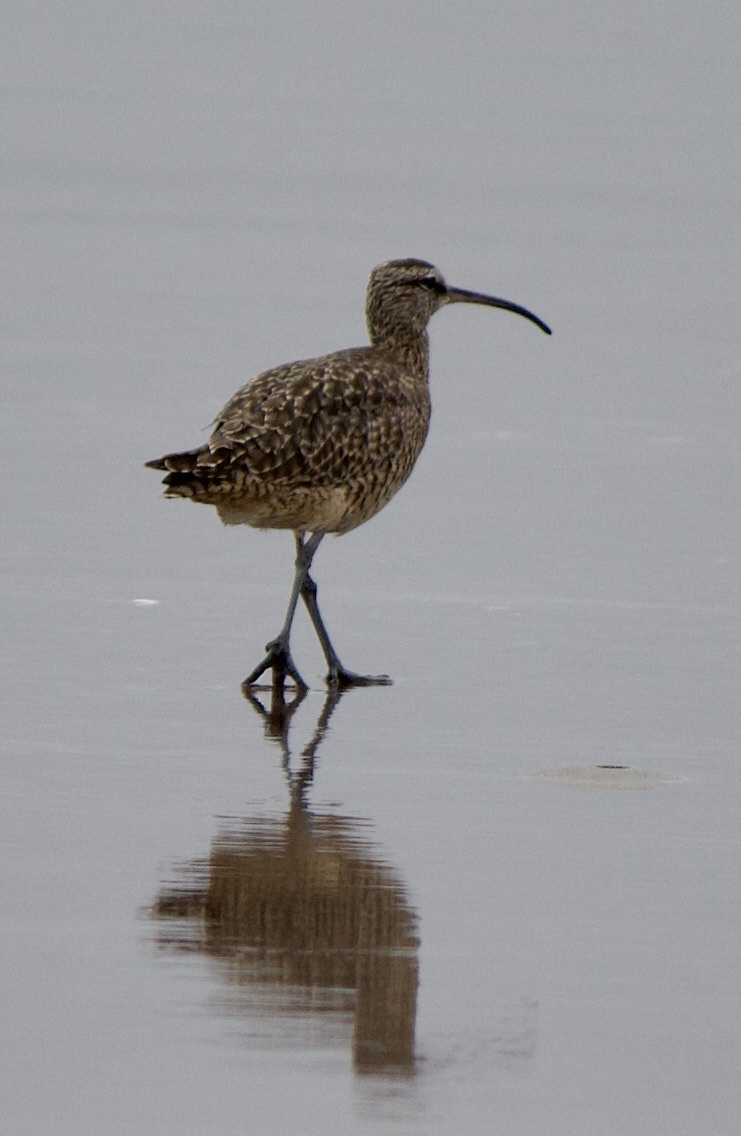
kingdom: Animalia
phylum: Chordata
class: Aves
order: Charadriiformes
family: Scolopacidae
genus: Numenius
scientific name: Numenius phaeopus
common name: Whimbrel
